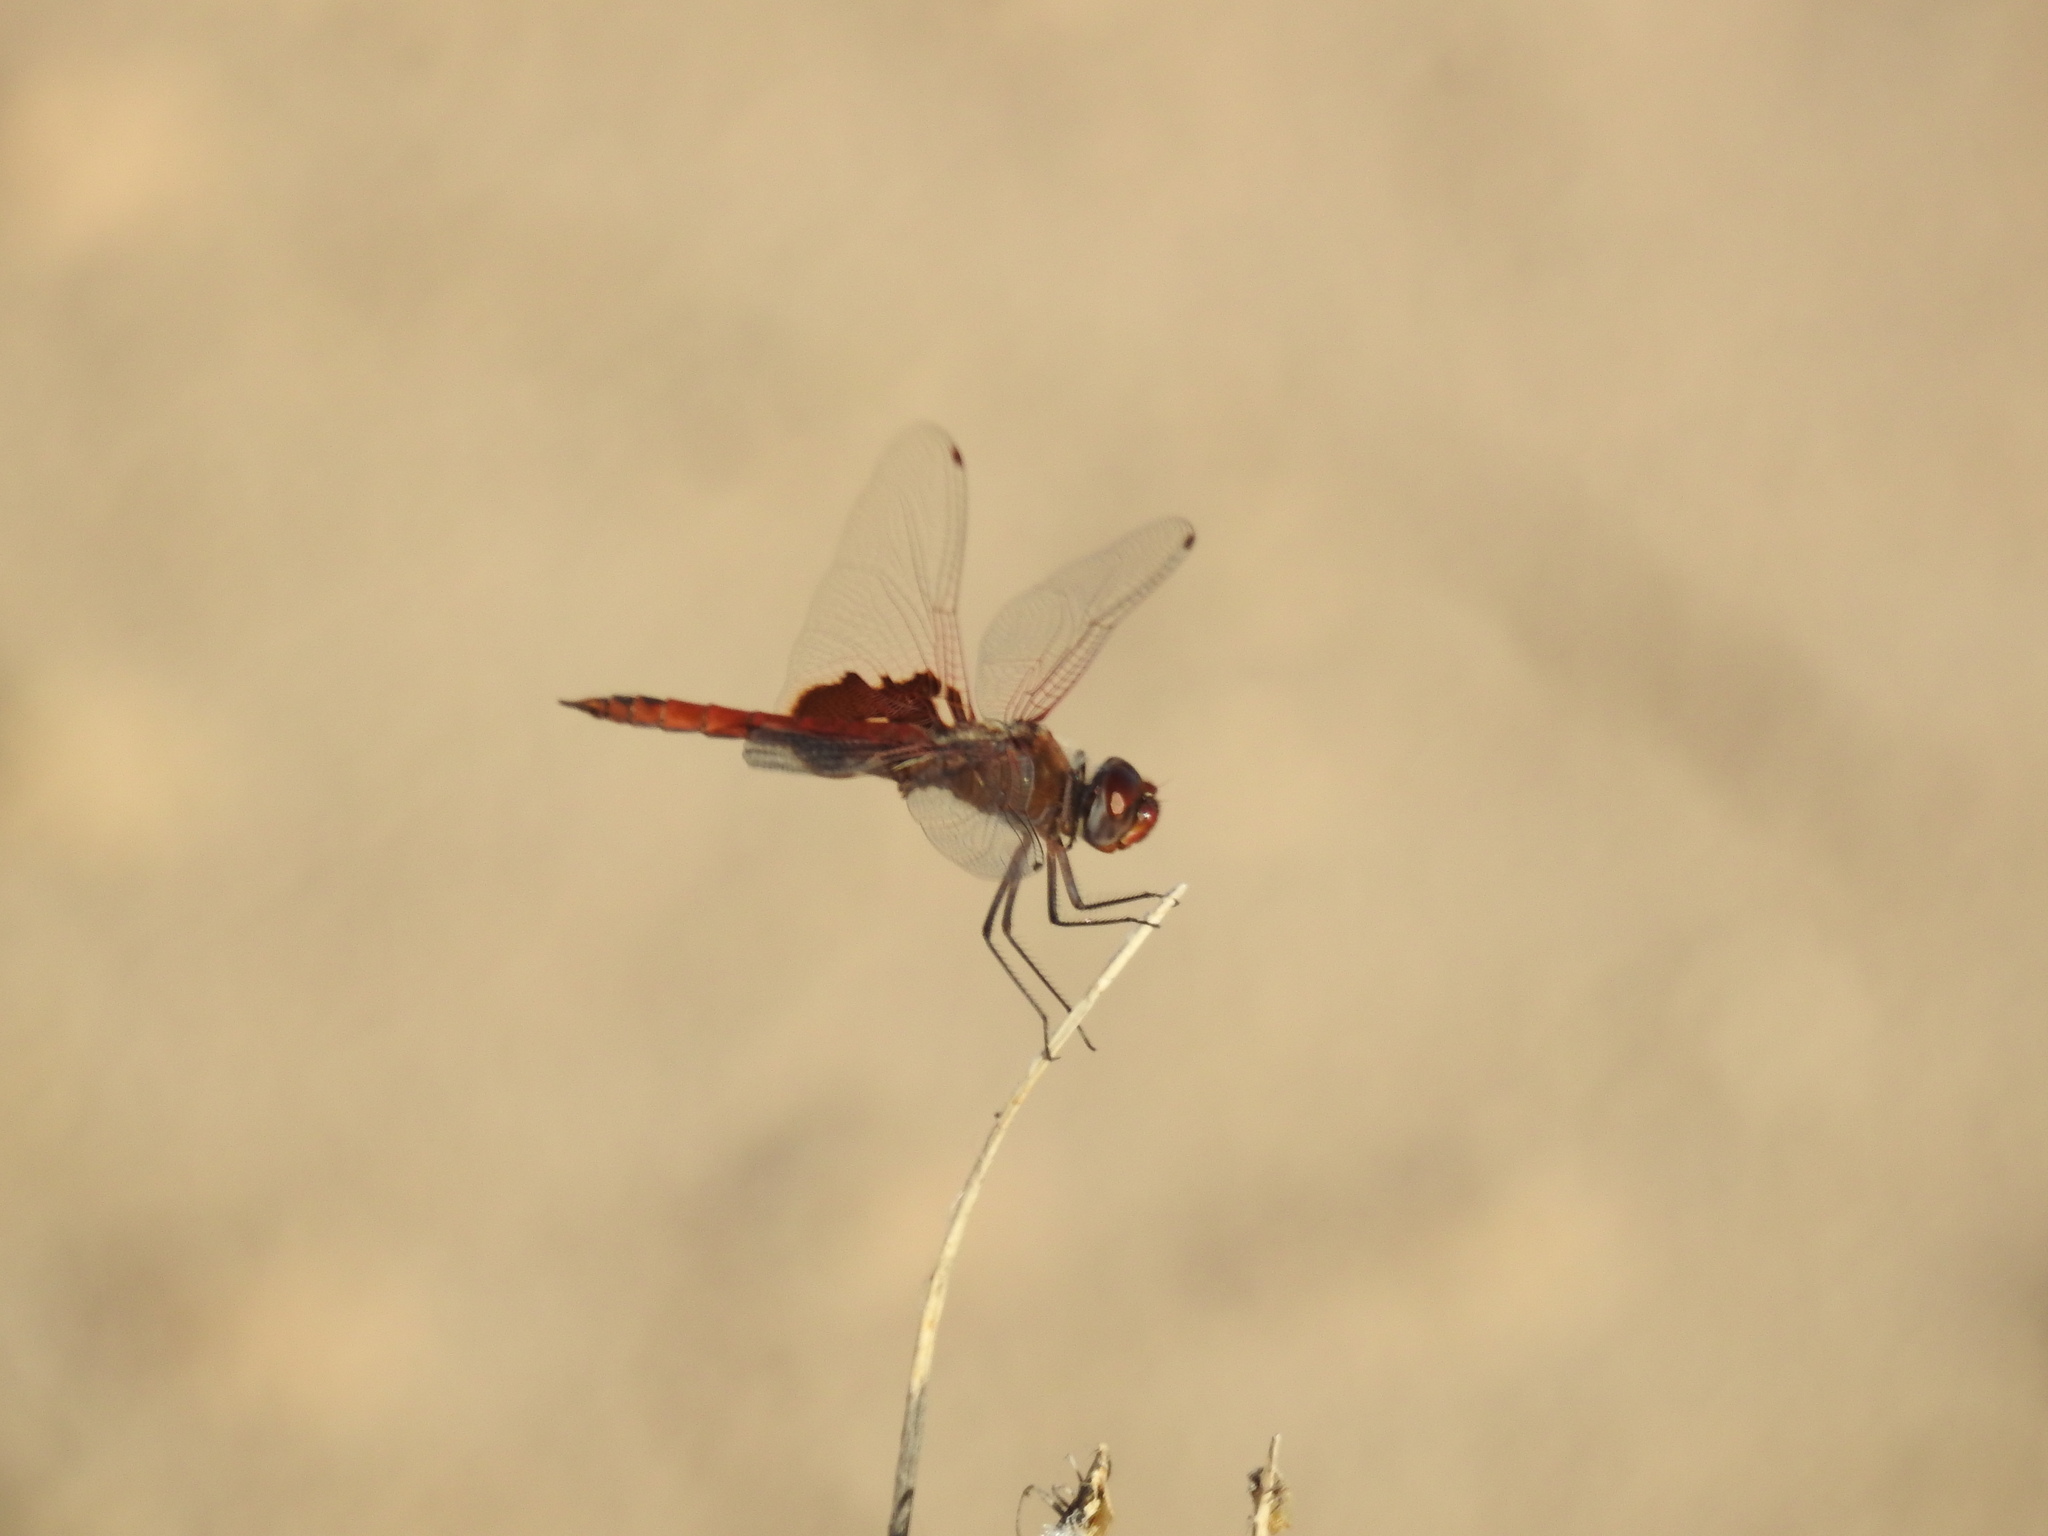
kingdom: Animalia
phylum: Arthropoda
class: Insecta
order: Odonata
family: Libellulidae
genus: Tramea
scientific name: Tramea onusta
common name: Red saddlebags
